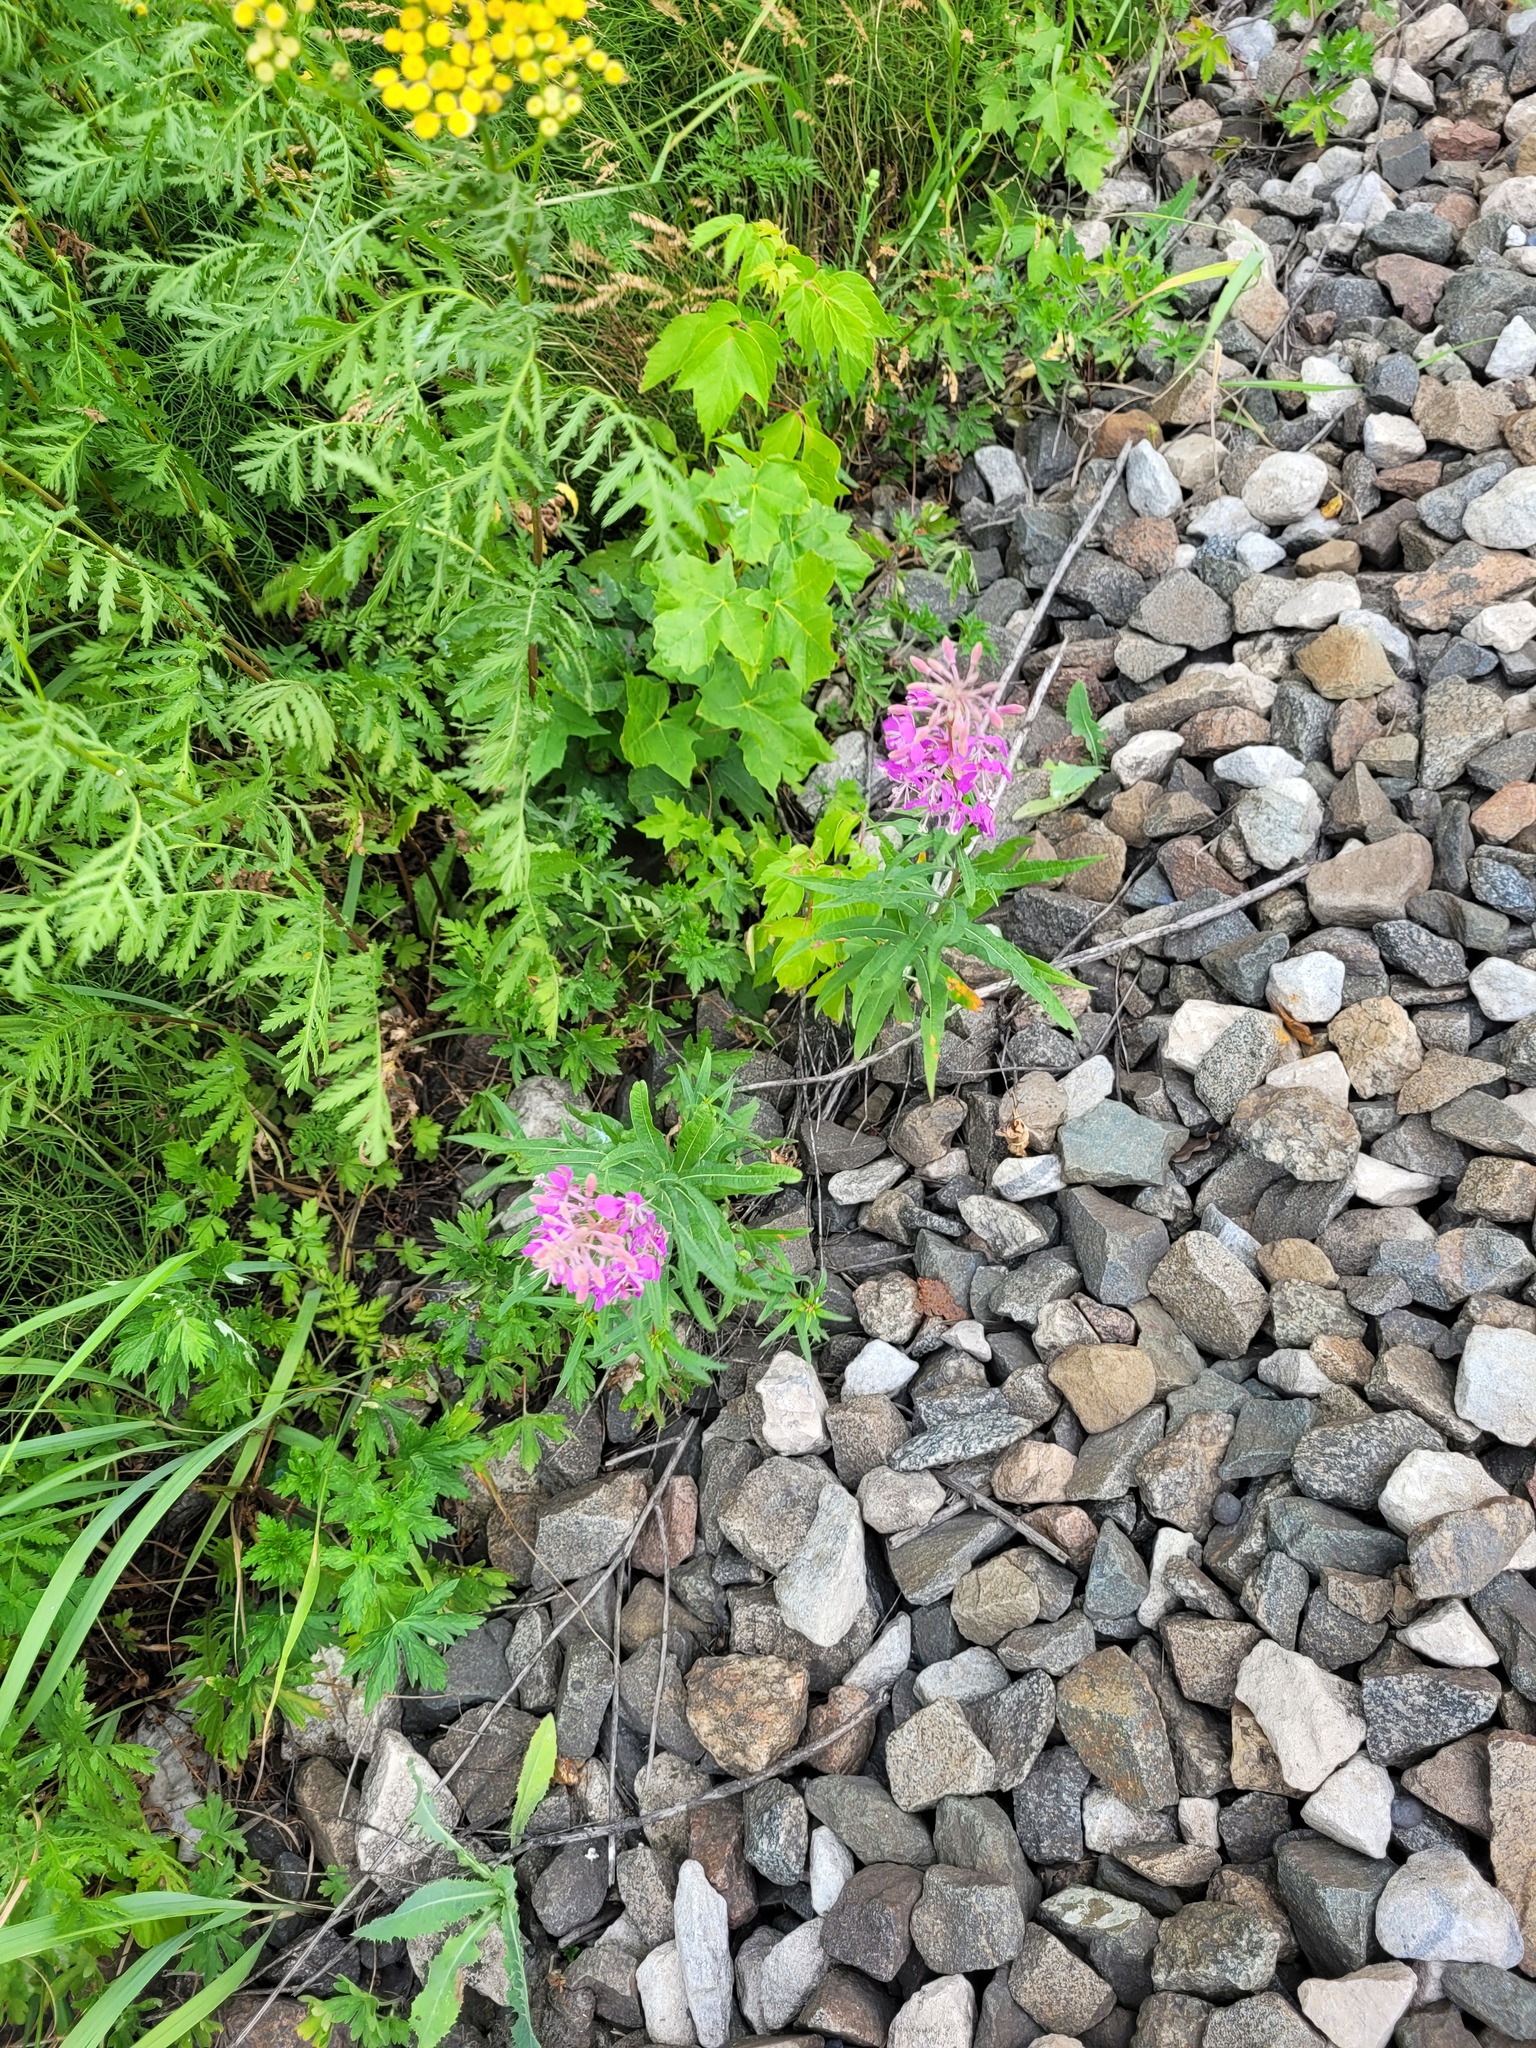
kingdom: Plantae
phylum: Tracheophyta
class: Magnoliopsida
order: Myrtales
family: Onagraceae
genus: Chamaenerion
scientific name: Chamaenerion angustifolium
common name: Fireweed
